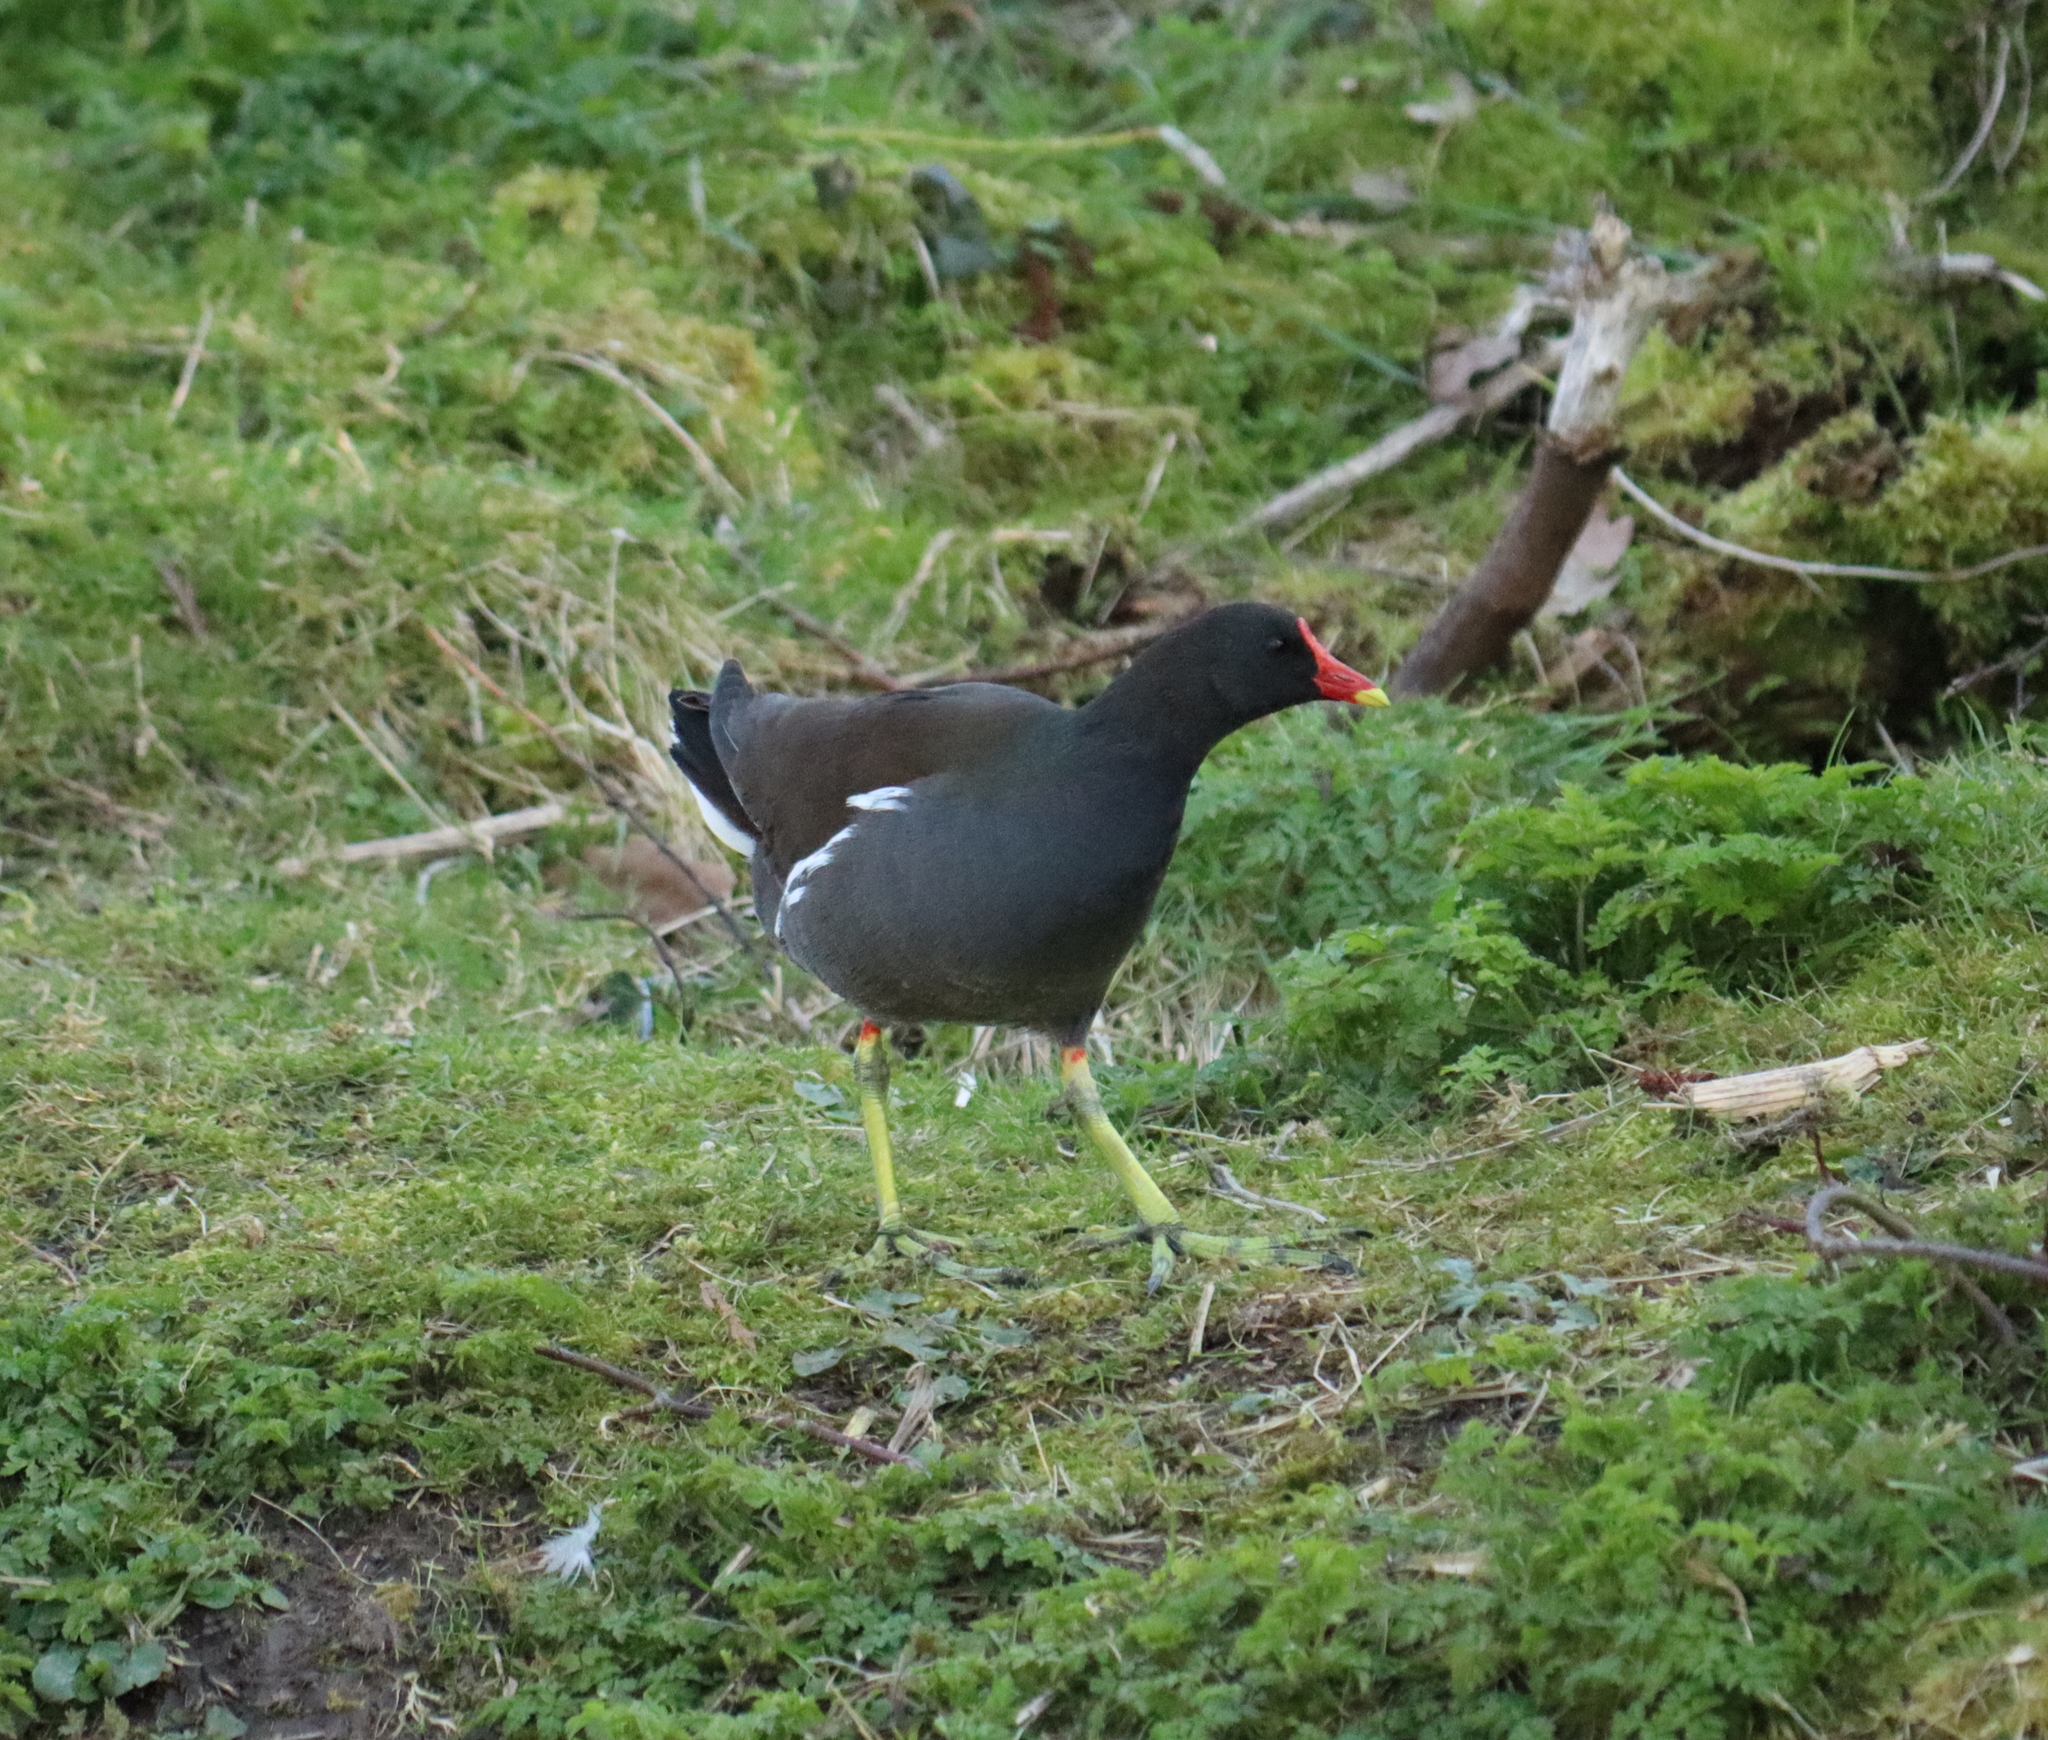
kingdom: Animalia
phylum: Chordata
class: Aves
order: Gruiformes
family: Rallidae
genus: Gallinula
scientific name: Gallinula chloropus
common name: Common moorhen
